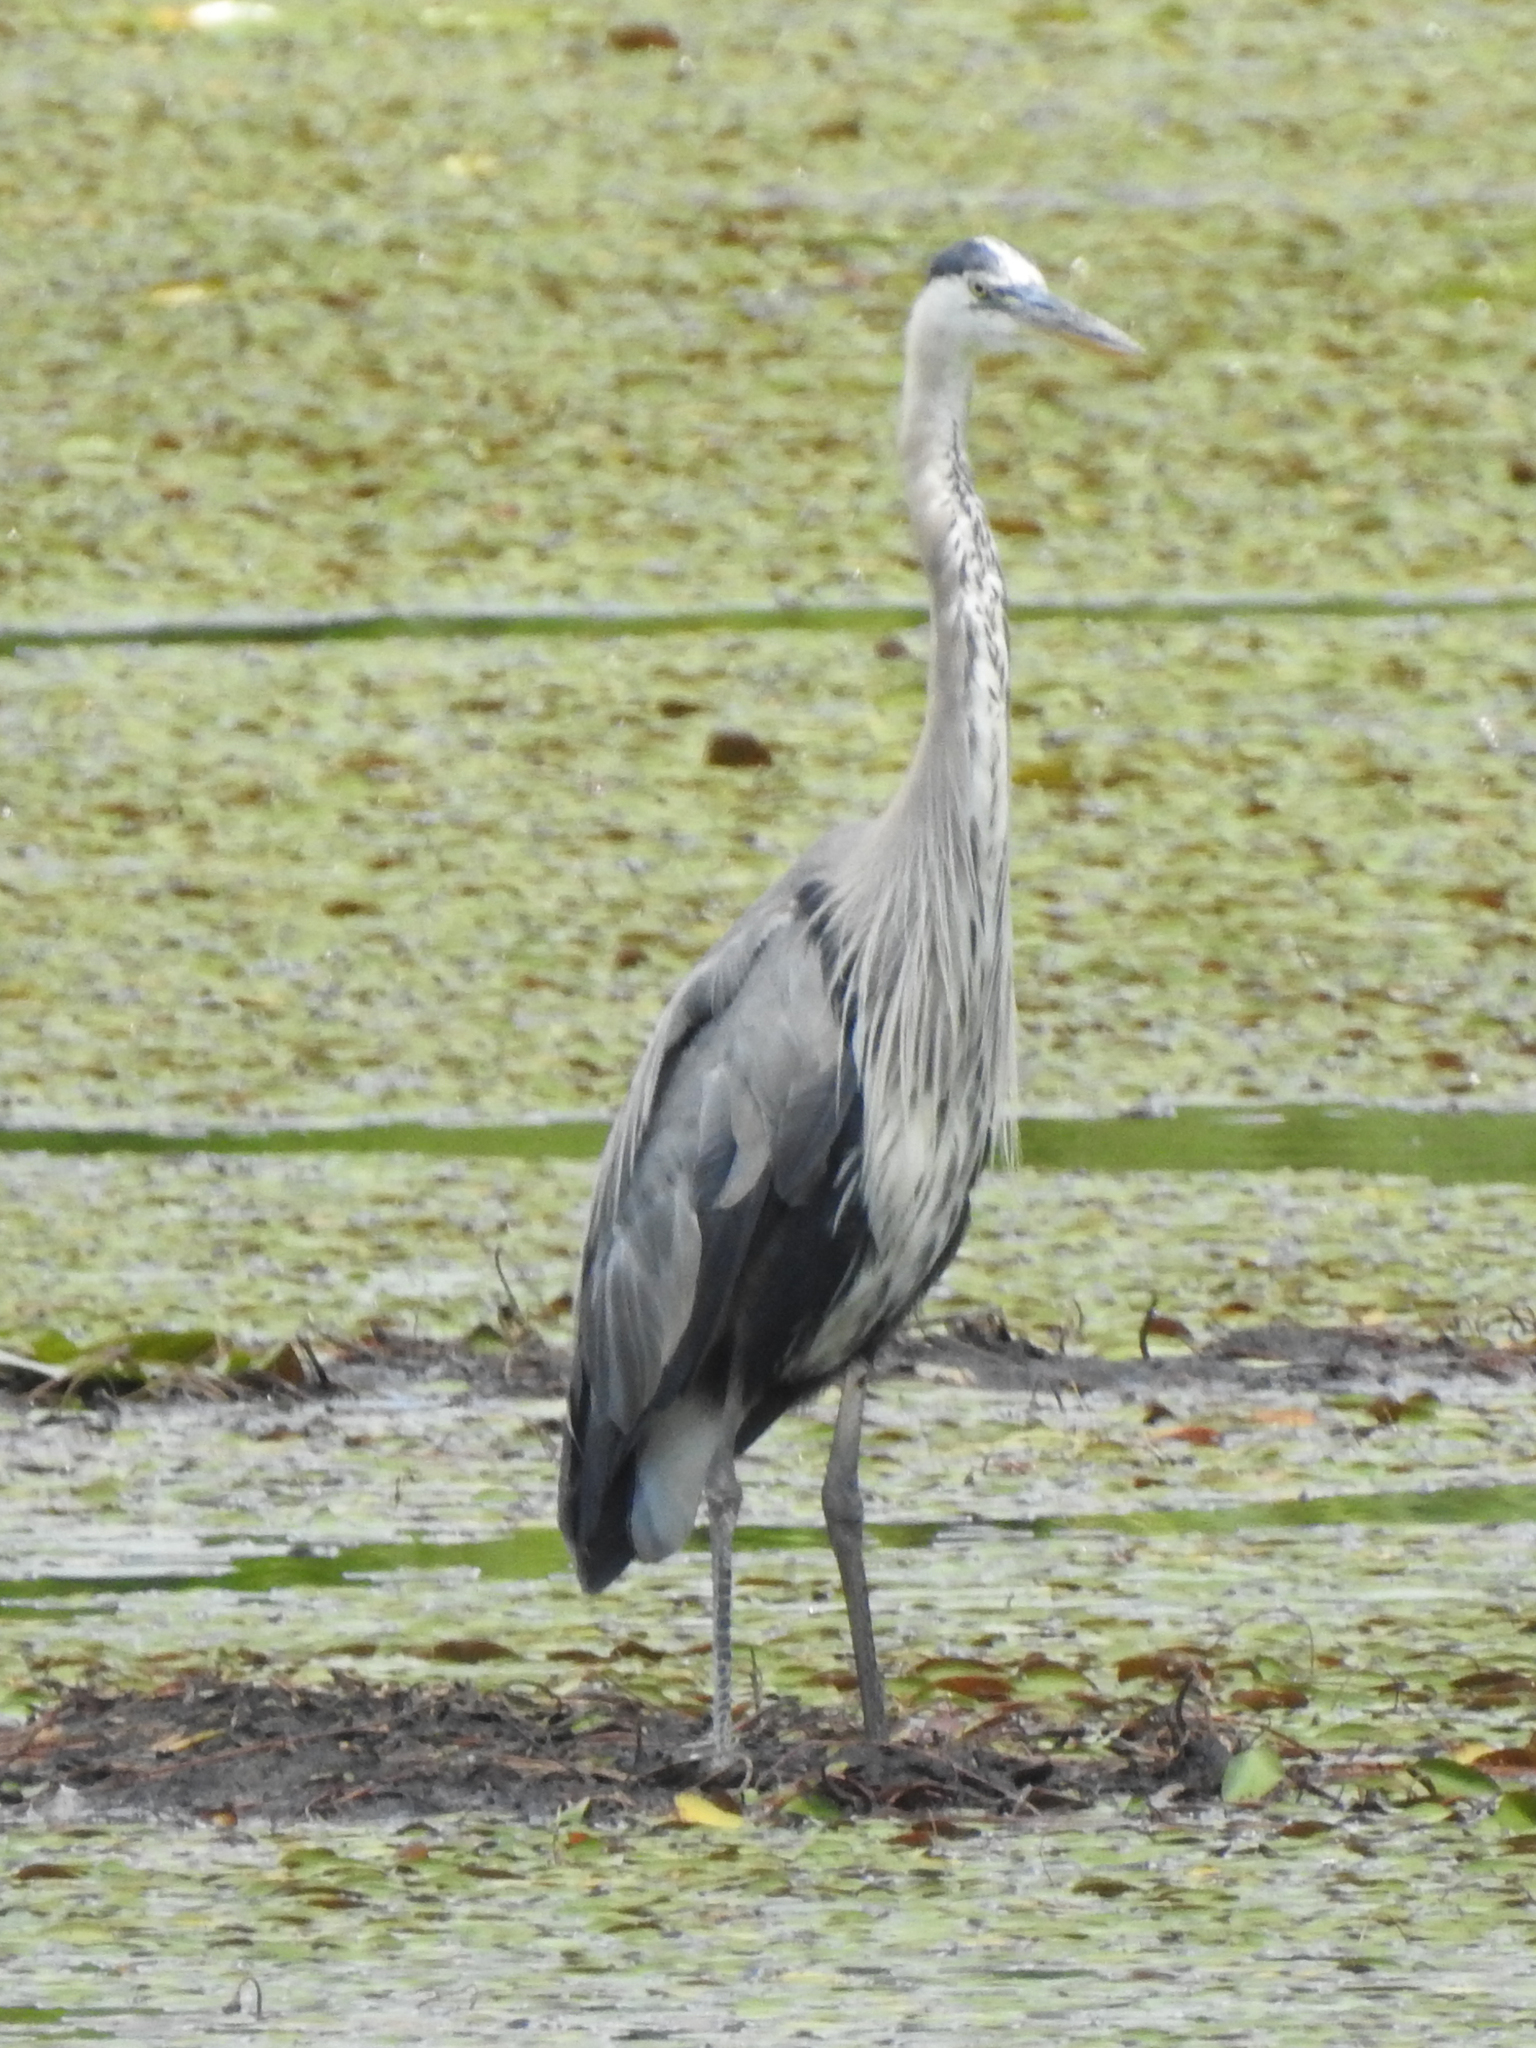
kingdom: Animalia
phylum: Chordata
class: Aves
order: Pelecaniformes
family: Ardeidae
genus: Ardea
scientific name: Ardea herodias
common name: Great blue heron
